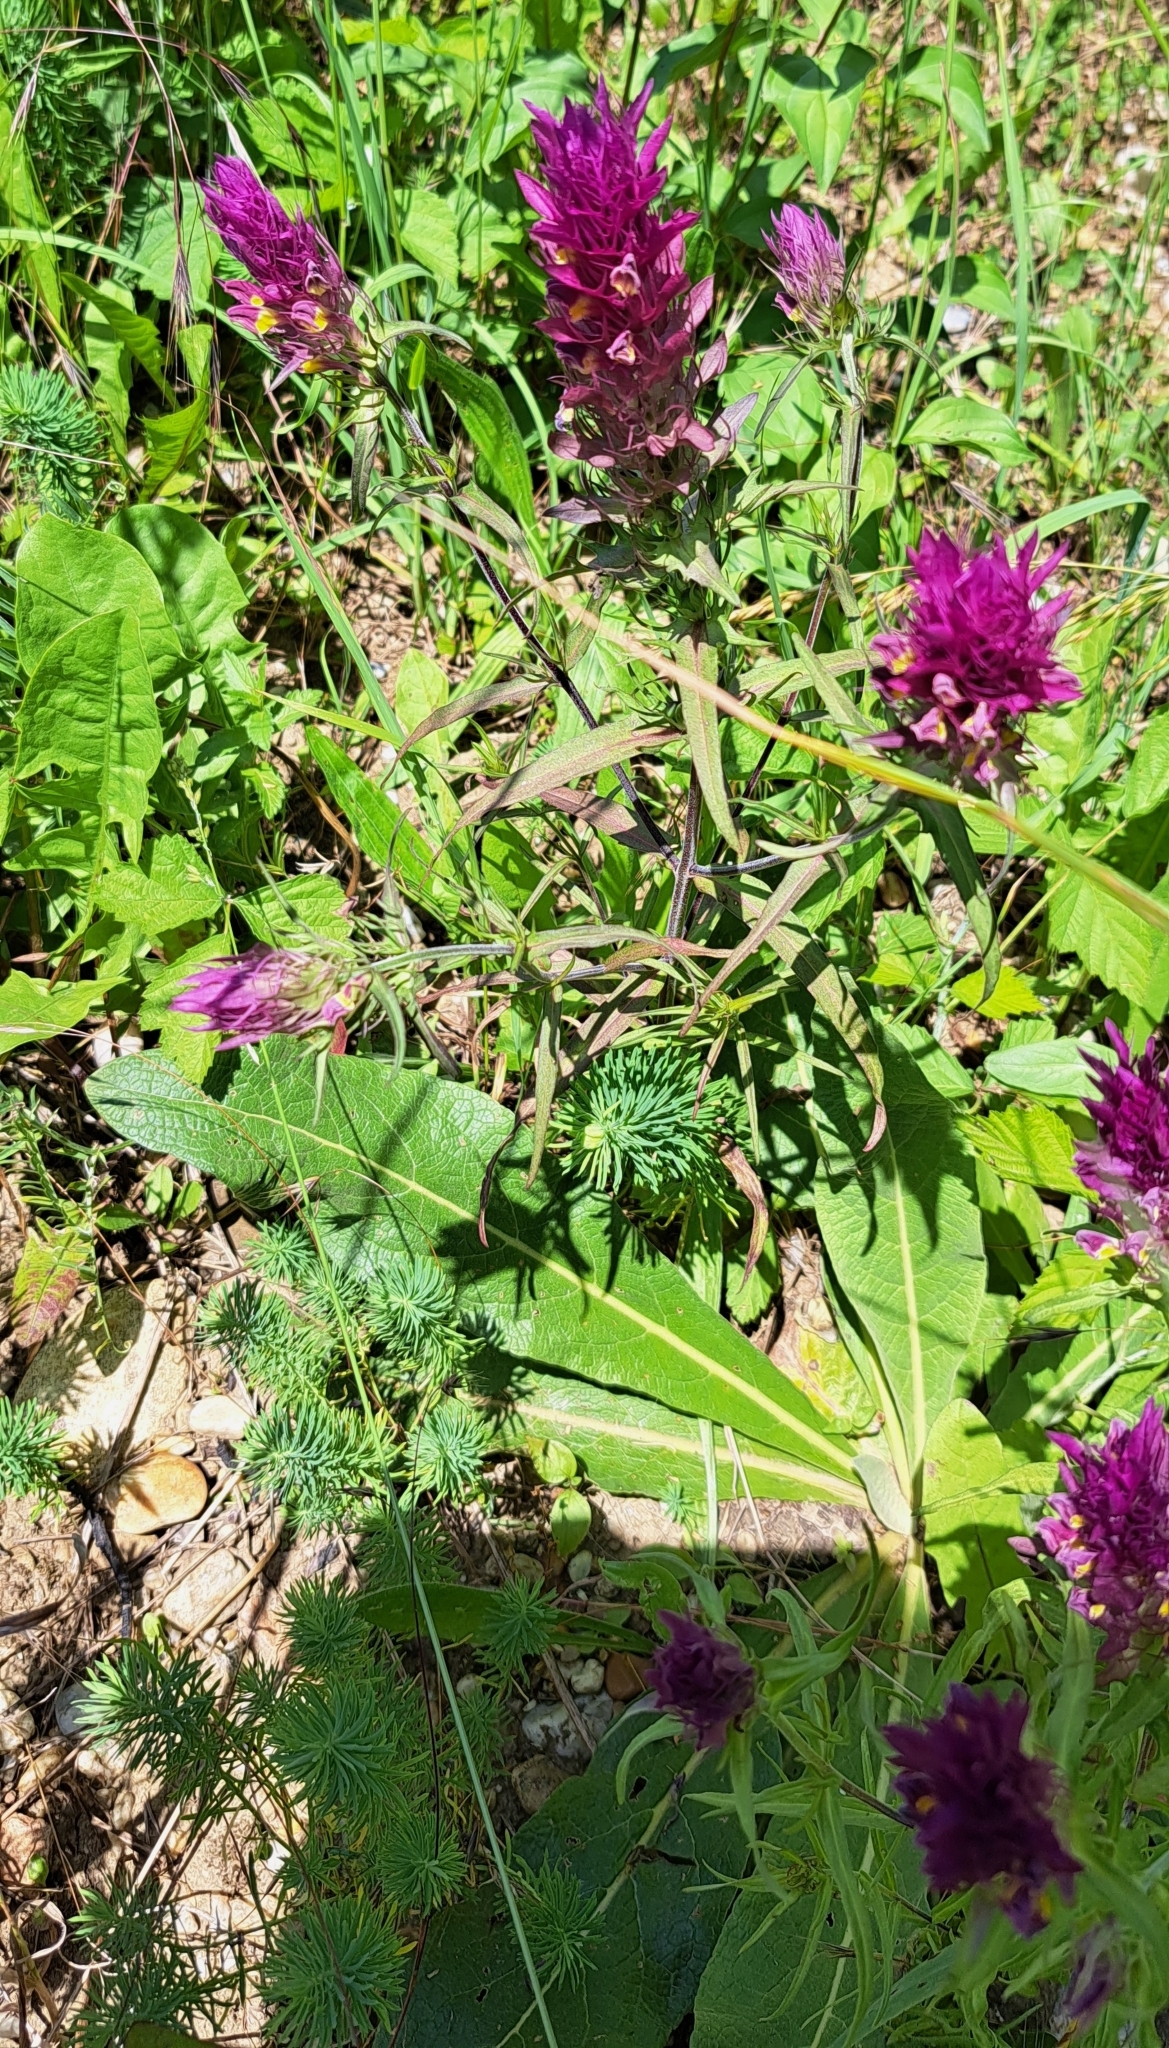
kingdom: Plantae
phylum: Tracheophyta
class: Magnoliopsida
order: Lamiales
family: Orobanchaceae
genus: Melampyrum
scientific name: Melampyrum arvense
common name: Field cow-wheat
